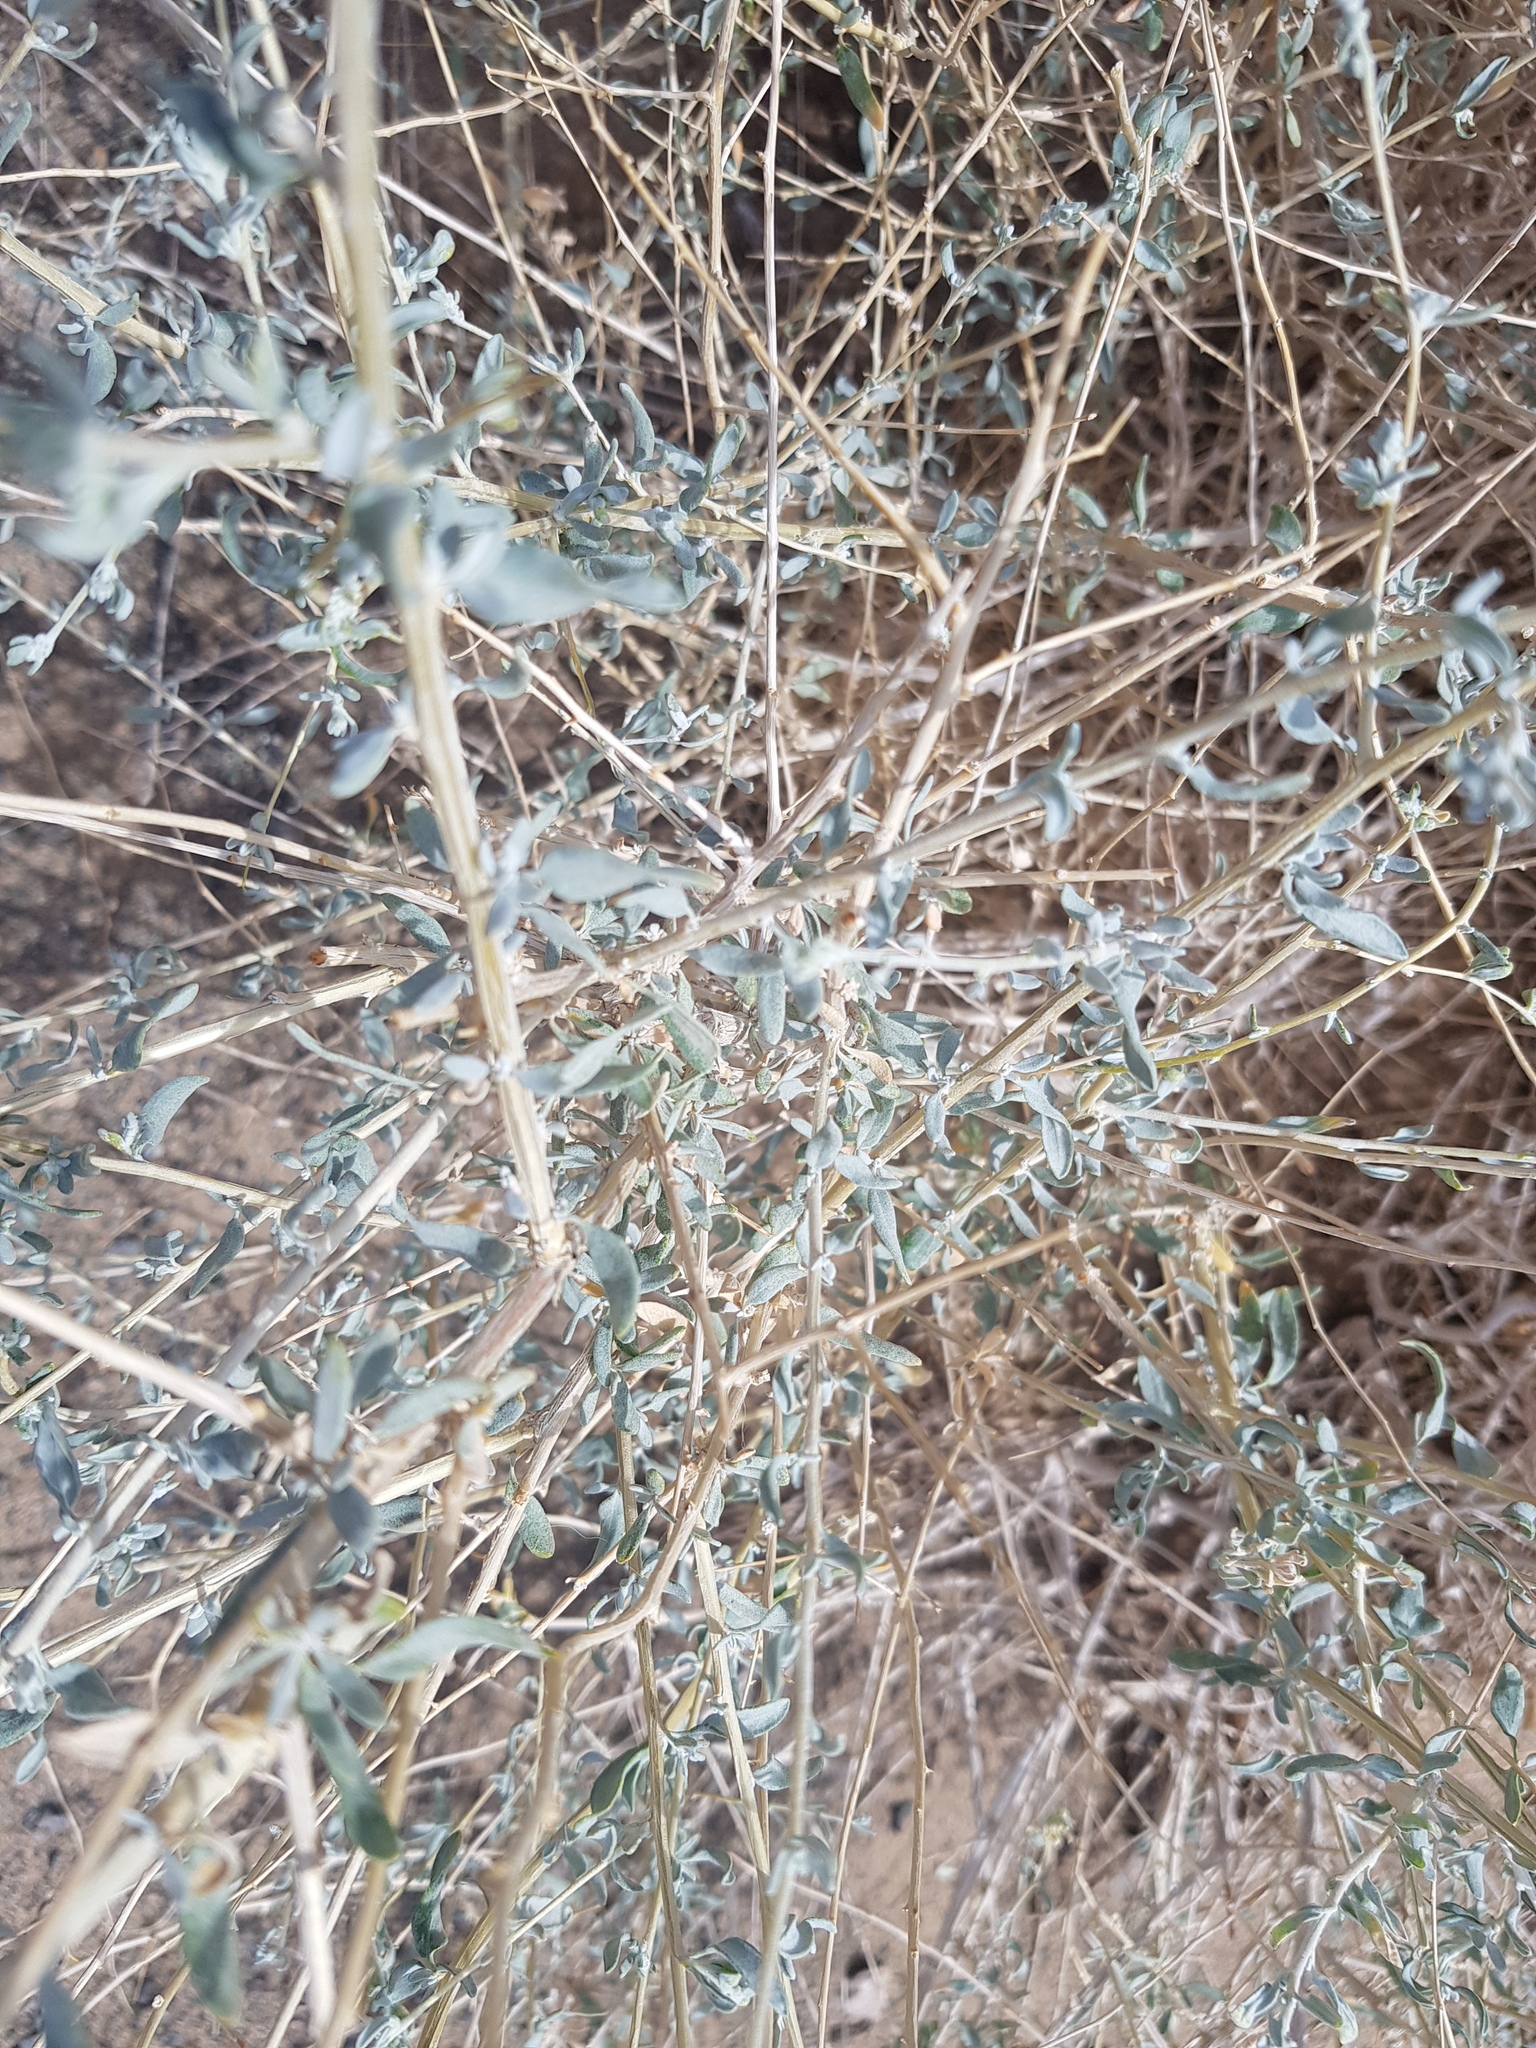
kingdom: Plantae
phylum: Tracheophyta
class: Magnoliopsida
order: Caryophyllales
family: Amaranthaceae
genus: Krascheninnikovia
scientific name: Krascheninnikovia ceratoides
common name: Pamirian winterfat
